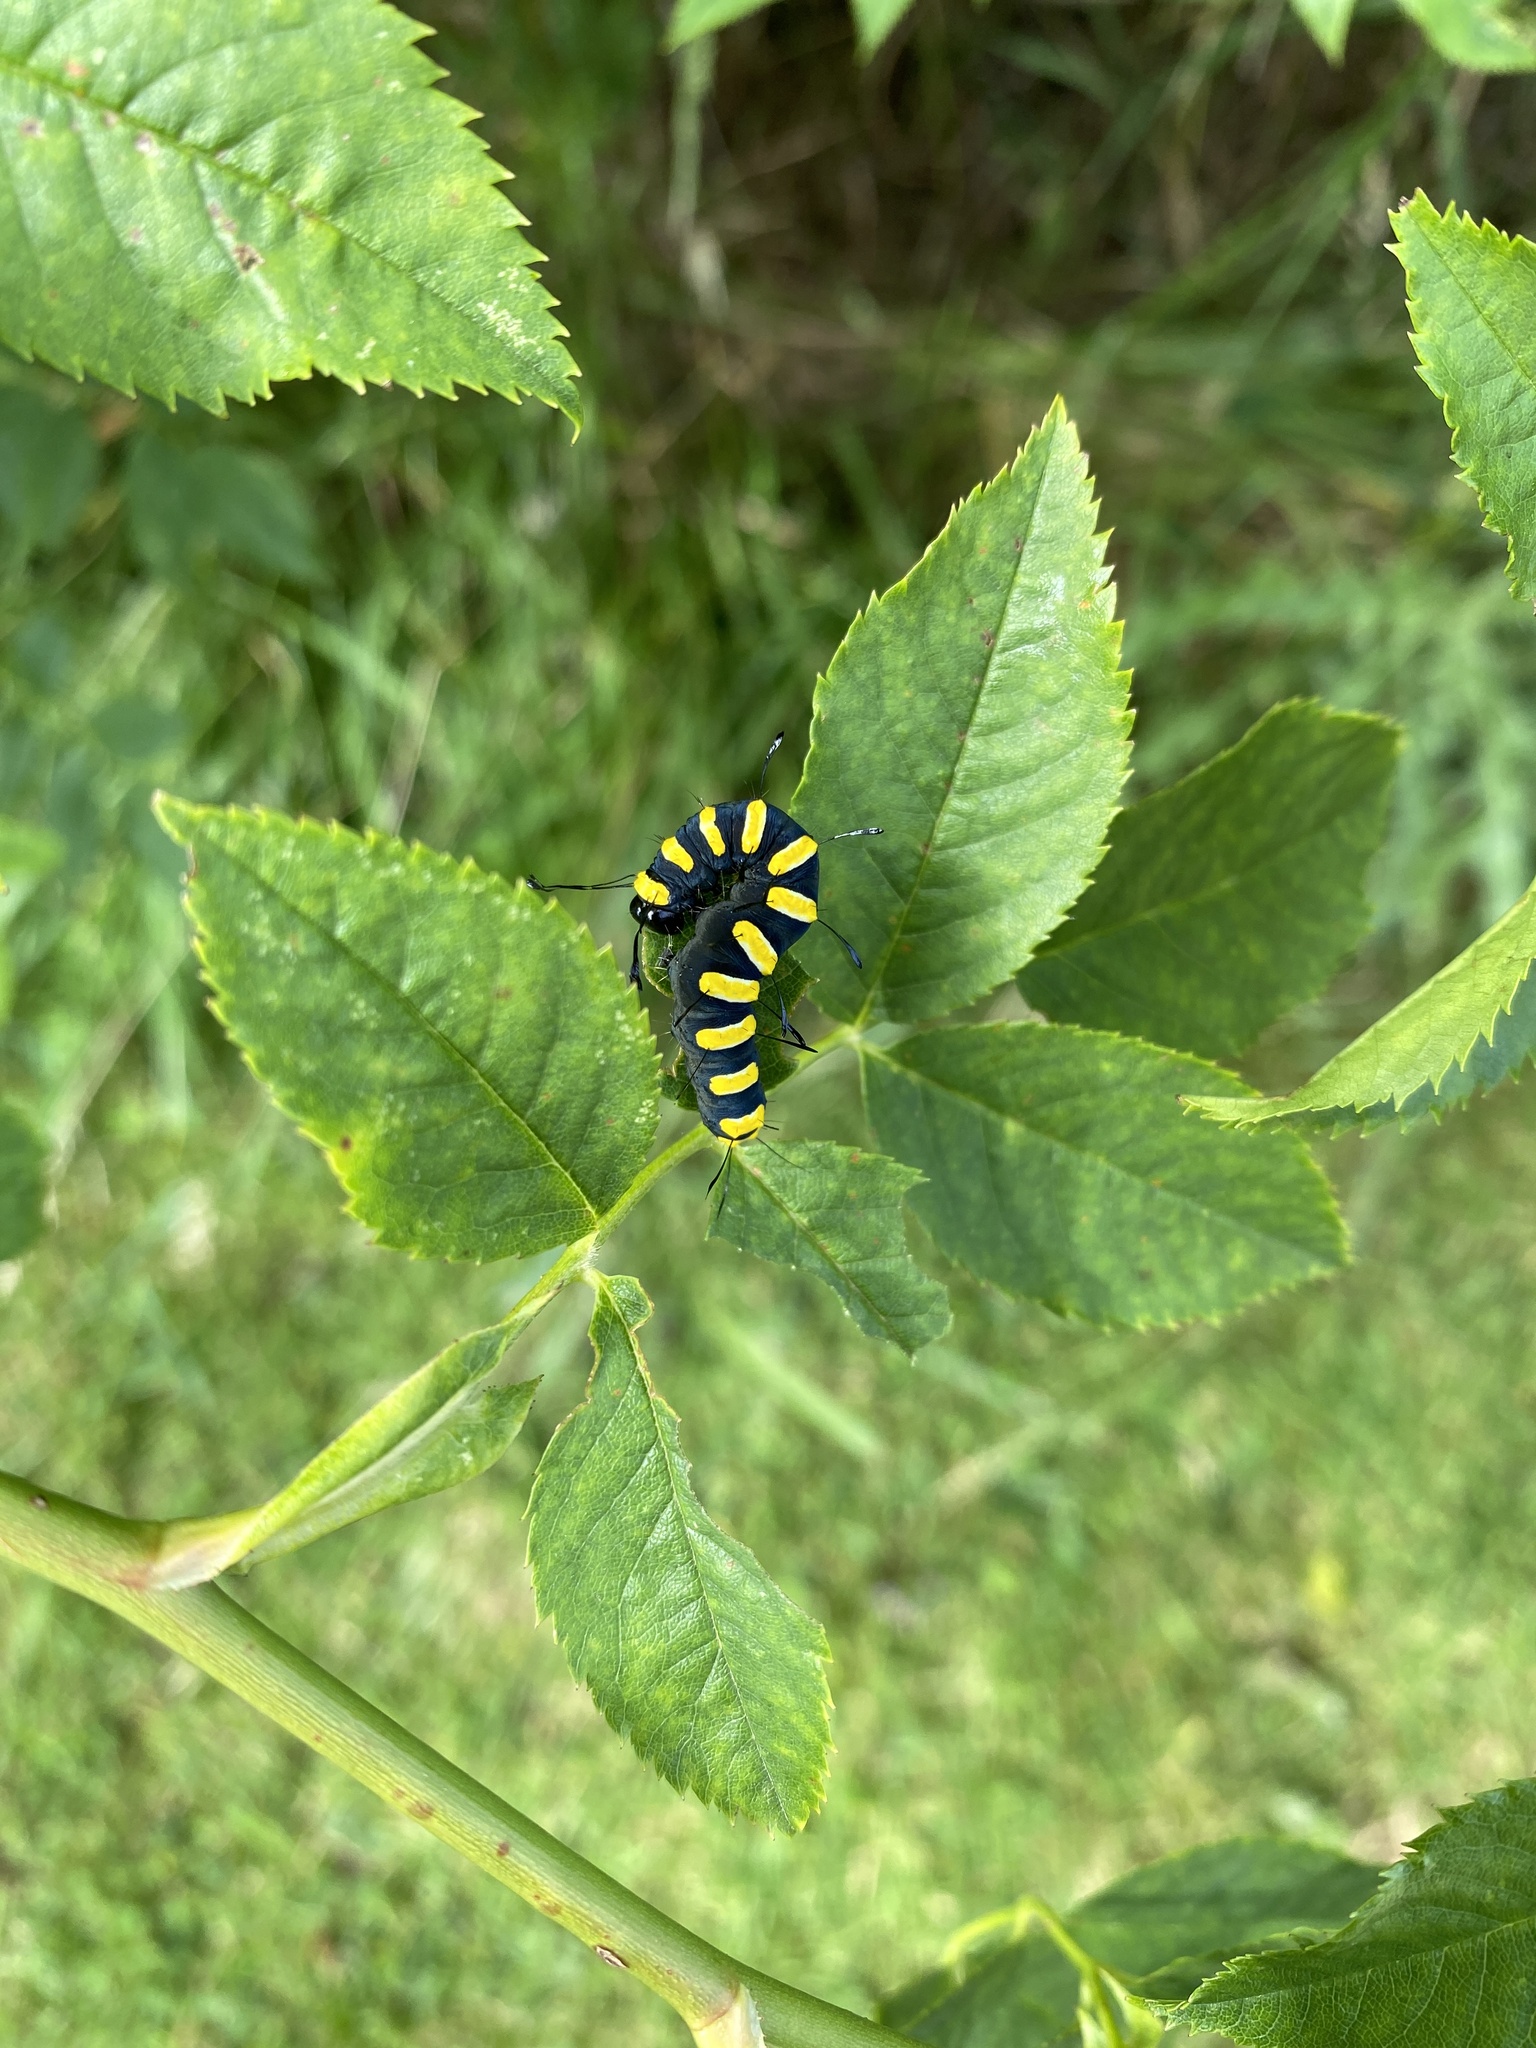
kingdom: Animalia
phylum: Arthropoda
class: Insecta
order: Lepidoptera
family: Noctuidae
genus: Acronicta
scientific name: Acronicta alni
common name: Alder moth
